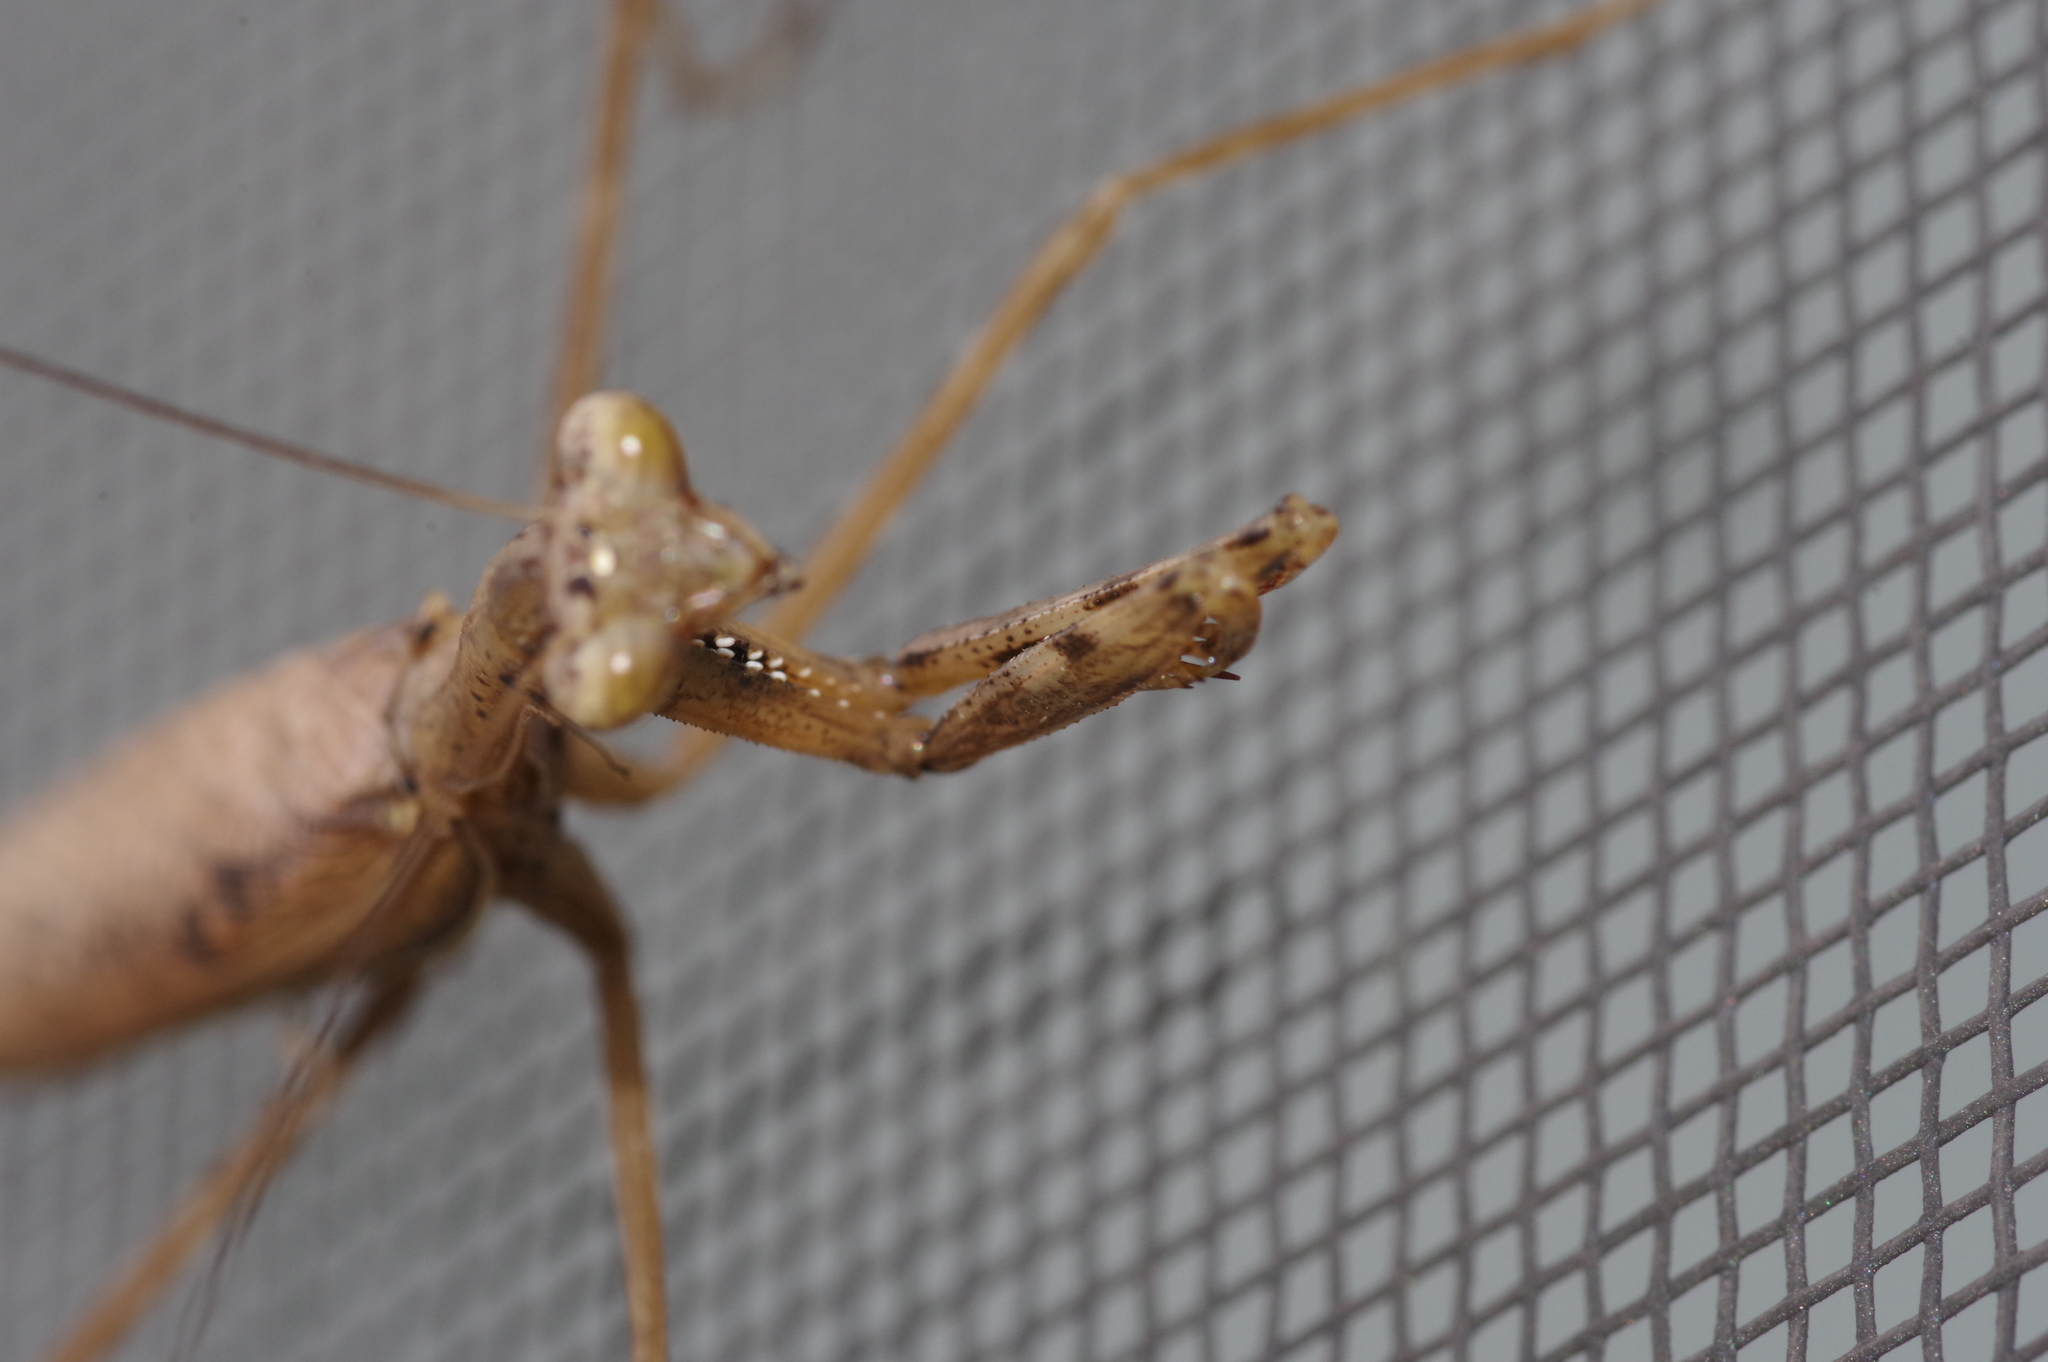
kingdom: Animalia
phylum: Arthropoda
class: Insecta
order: Mantodea
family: Mantidae
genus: Statilia
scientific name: Statilia nemoralis
